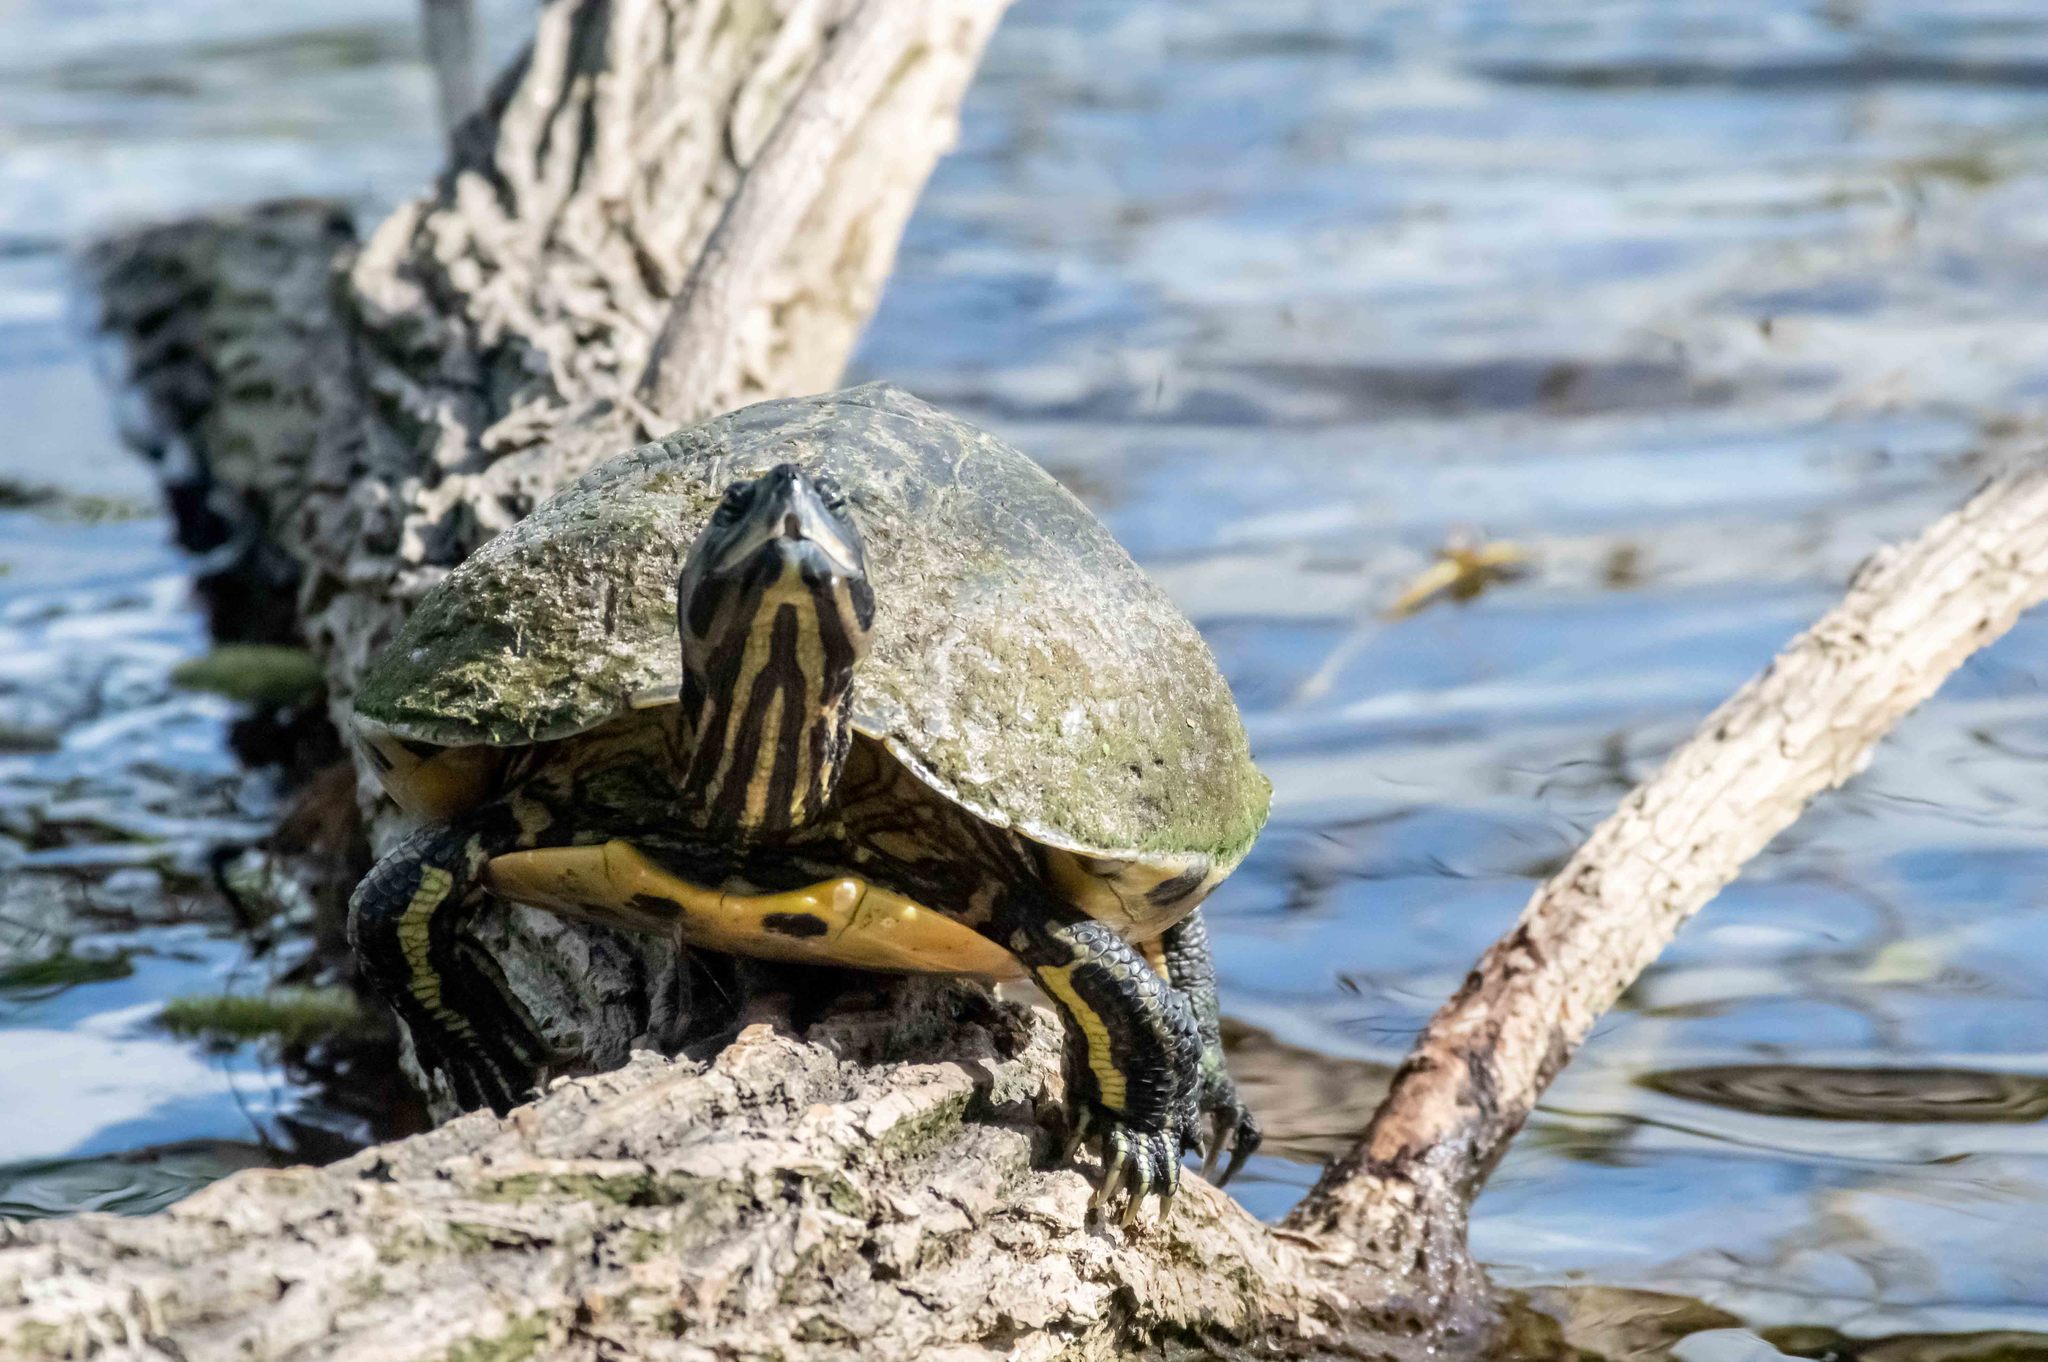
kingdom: Animalia
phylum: Chordata
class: Testudines
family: Emydidae
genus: Trachemys
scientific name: Trachemys scripta
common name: Slider
